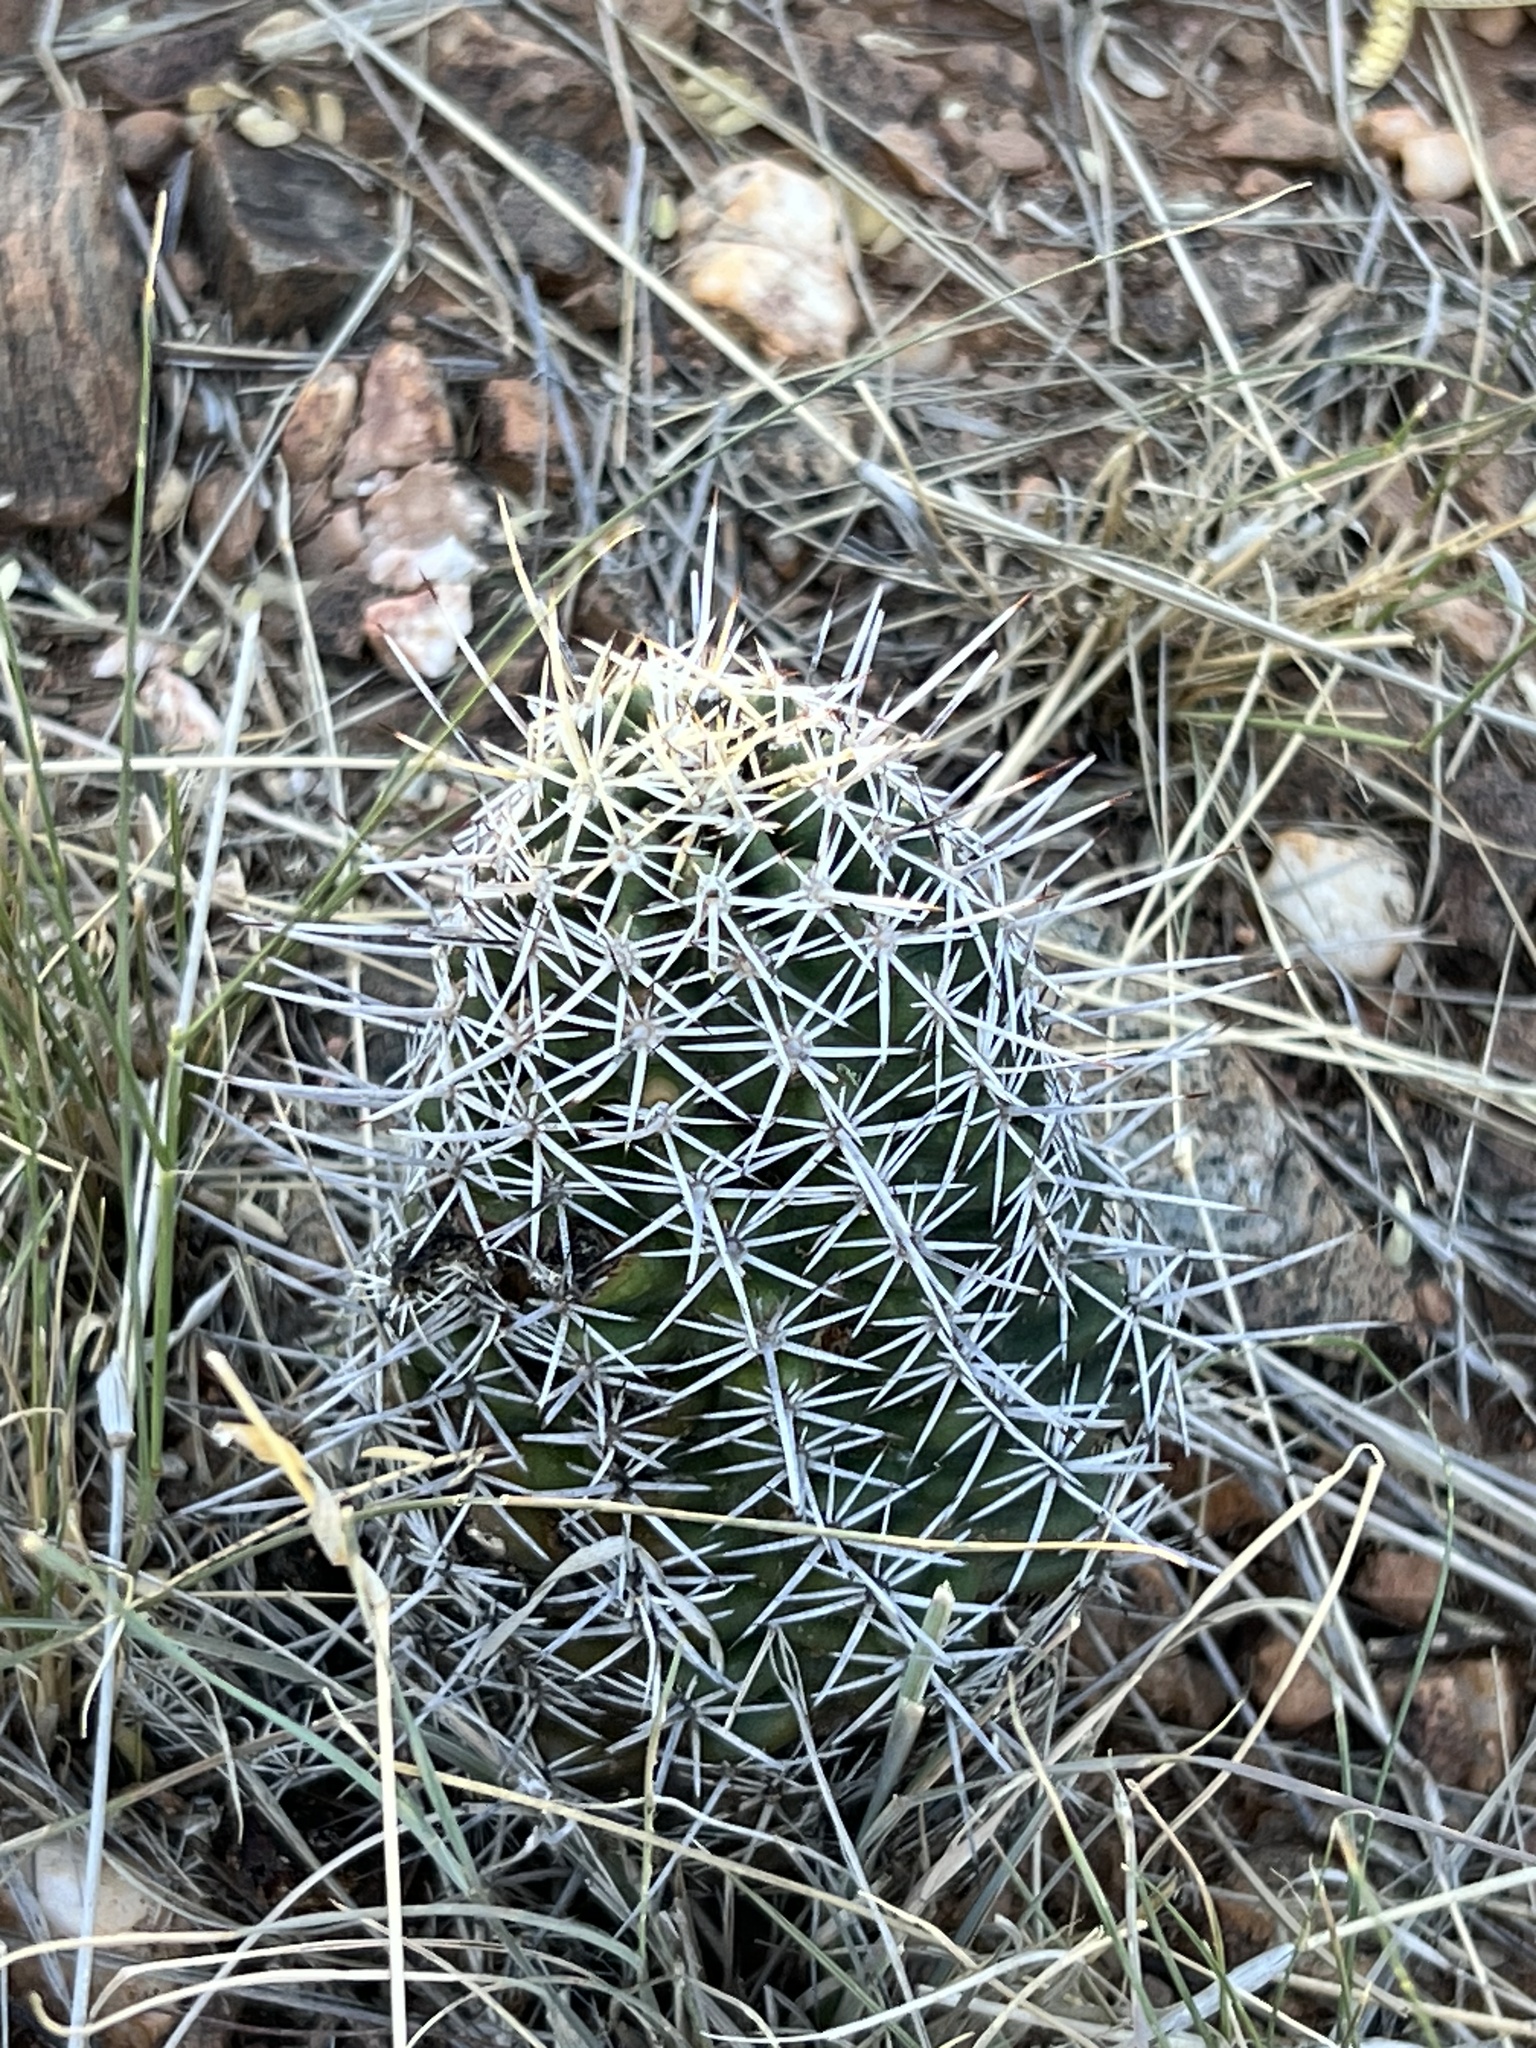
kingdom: Plantae
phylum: Tracheophyta
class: Magnoliopsida
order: Caryophyllales
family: Cactaceae
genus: Echinocereus
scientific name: Echinocereus fendleri
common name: Fendler's hedgehog cactus
